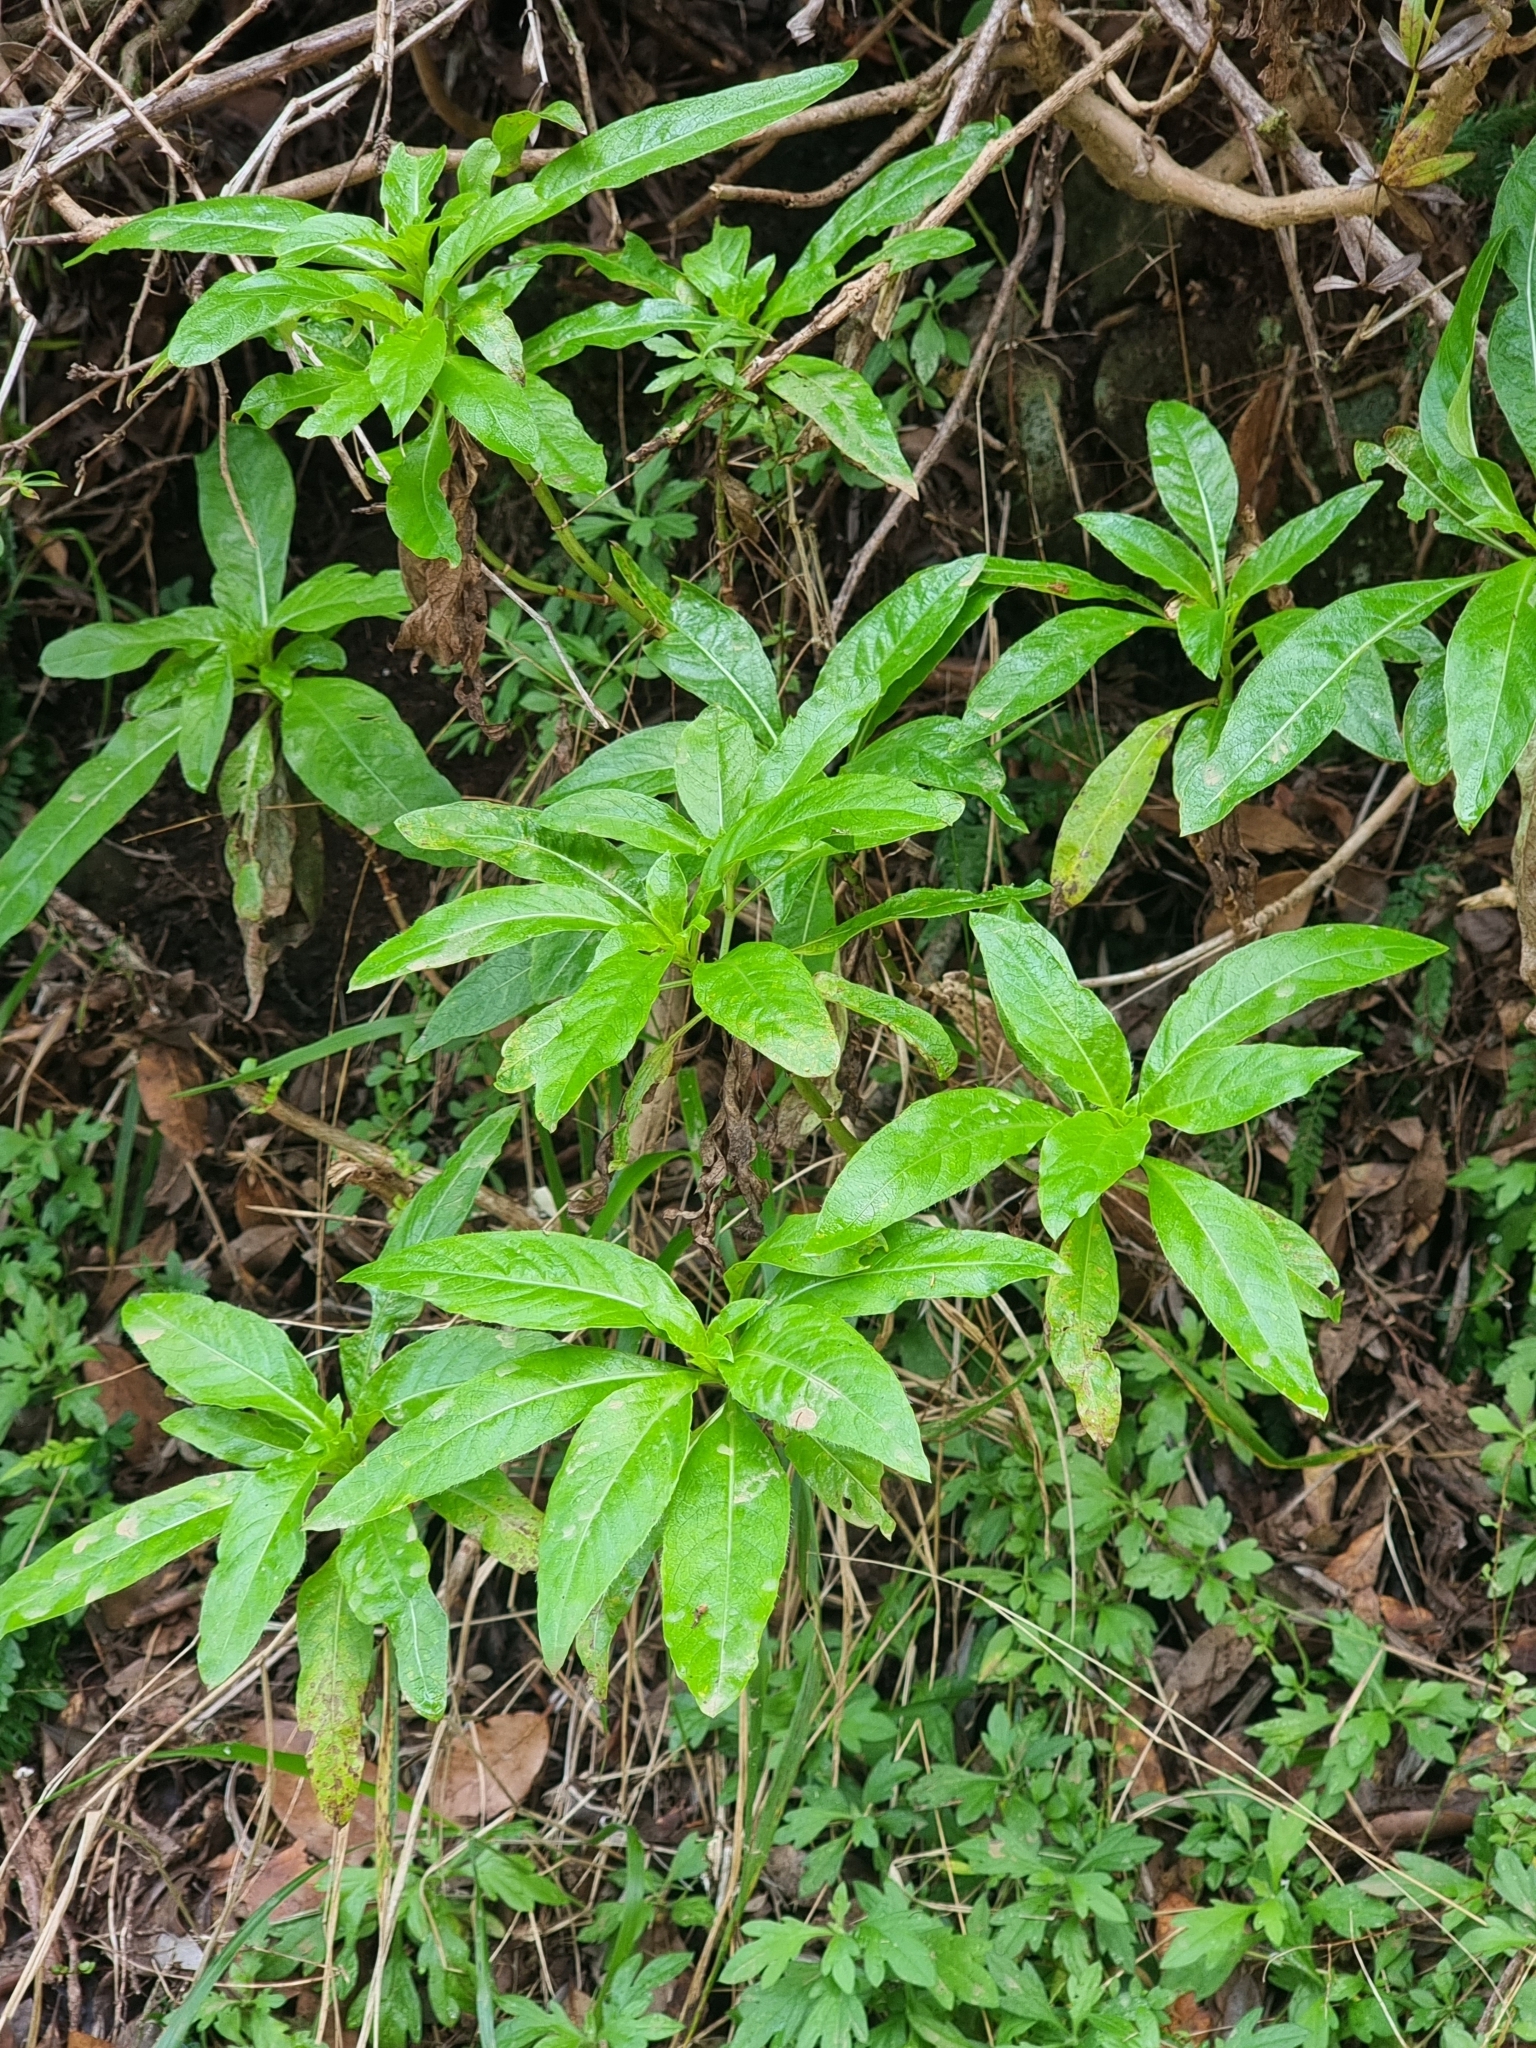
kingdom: Plantae
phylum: Tracheophyta
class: Magnoliopsida
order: Gentianales
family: Rubiaceae
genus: Phyllis
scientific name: Phyllis nobla
